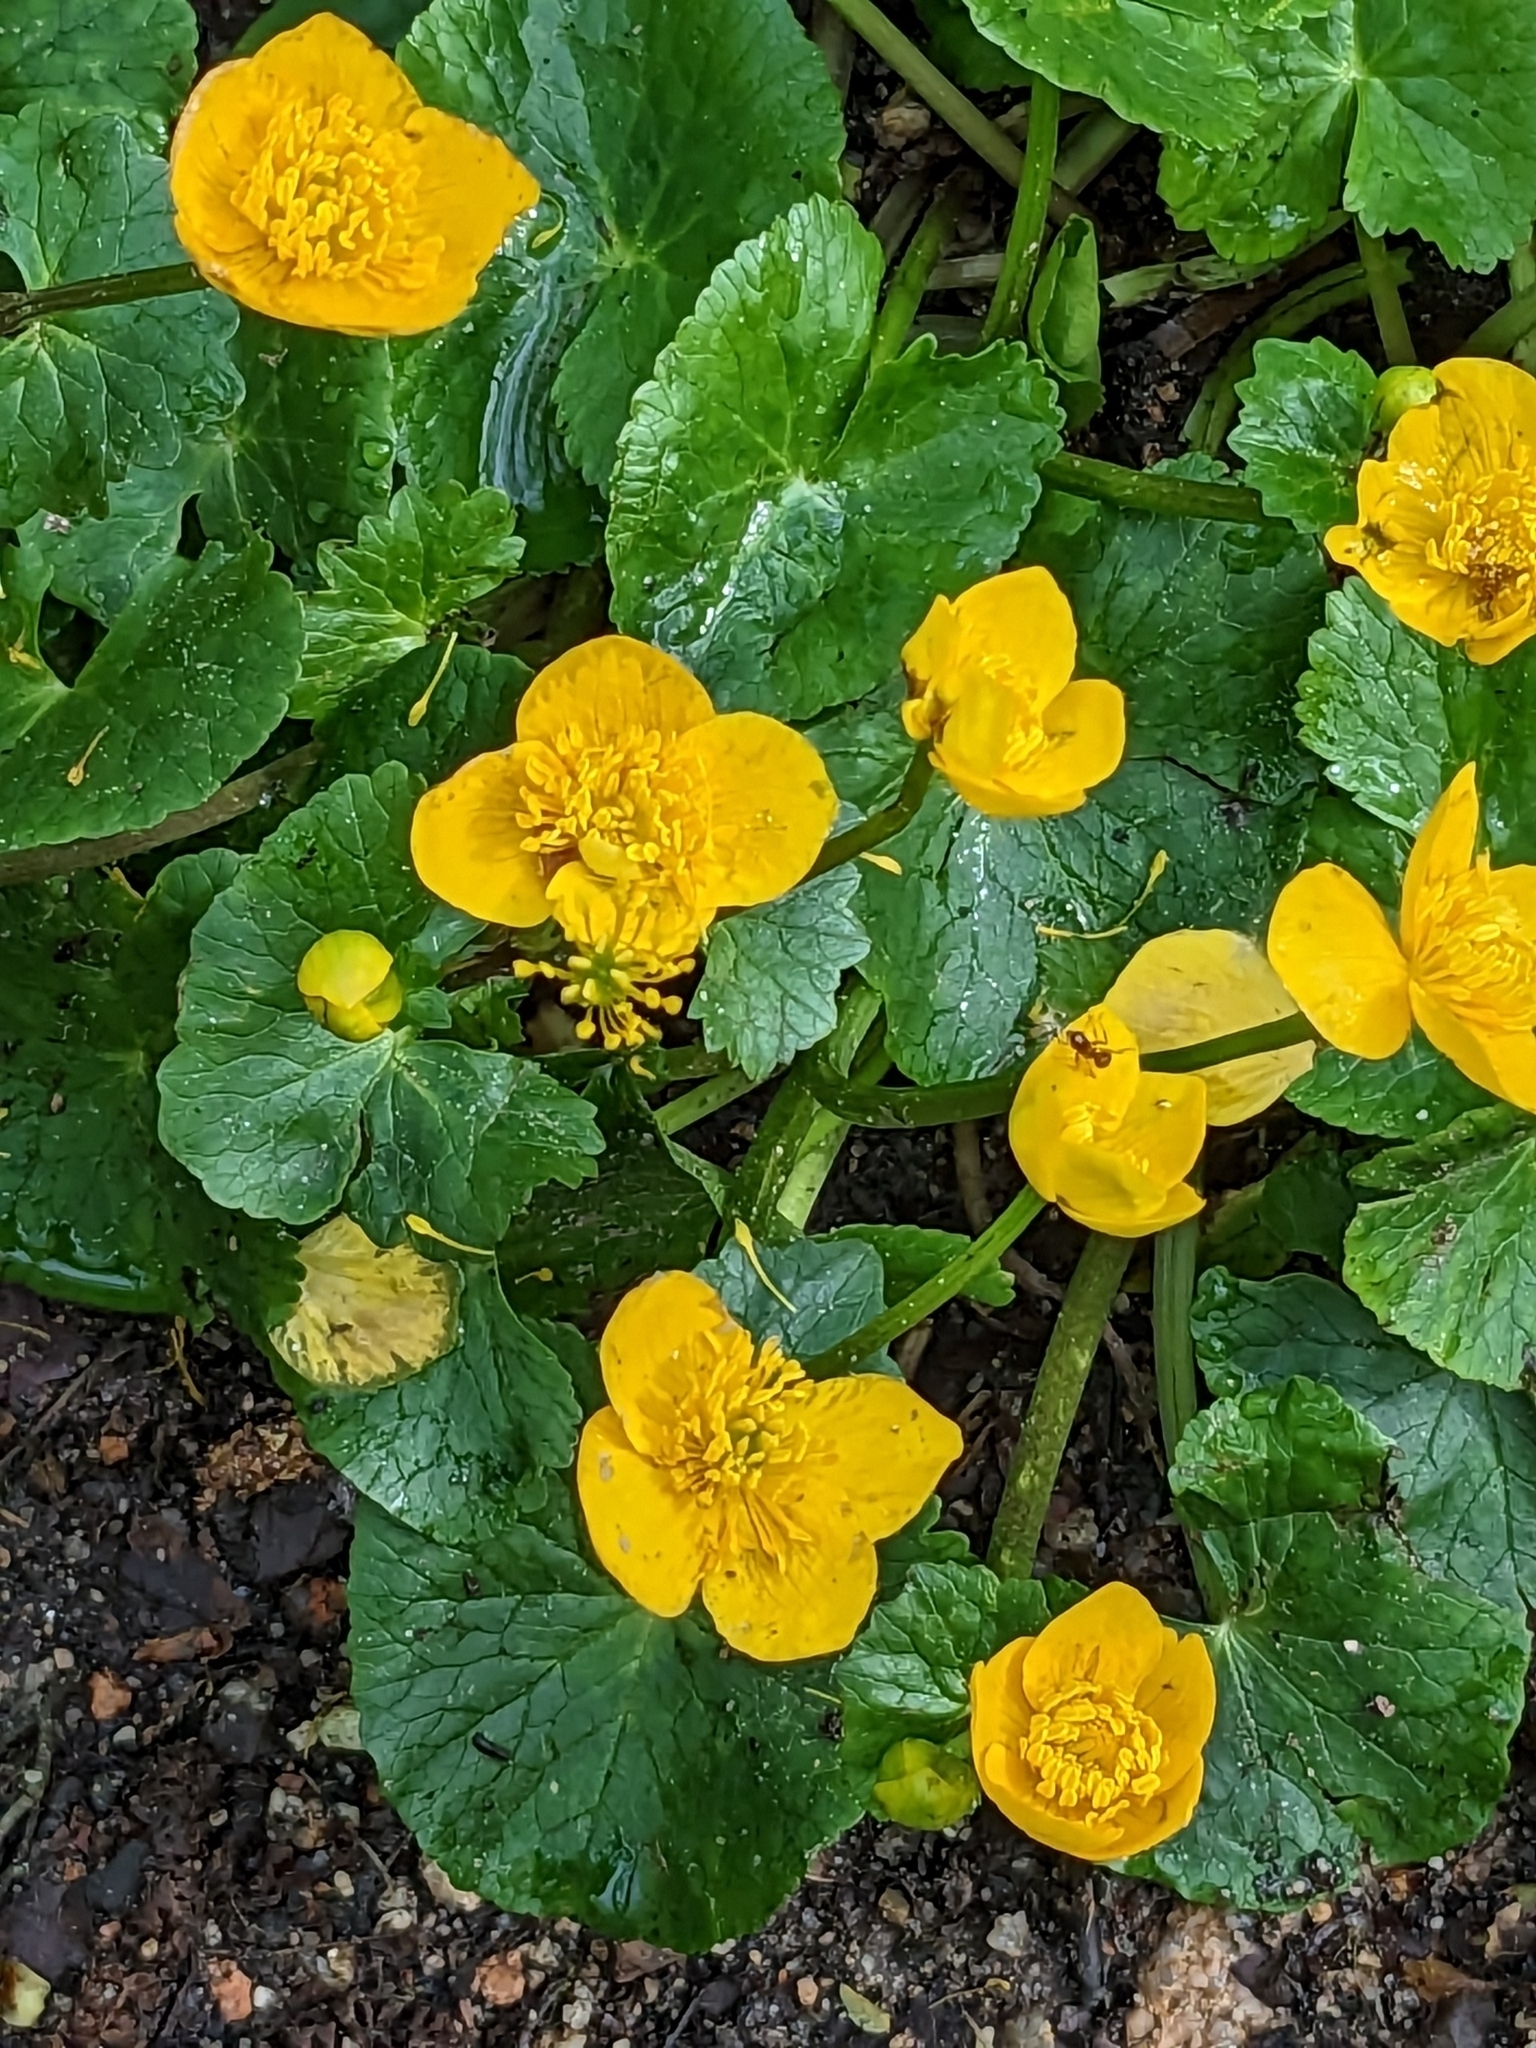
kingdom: Plantae
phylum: Tracheophyta
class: Magnoliopsida
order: Ranunculales
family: Ranunculaceae
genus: Caltha
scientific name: Caltha palustris
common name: Marsh marigold
